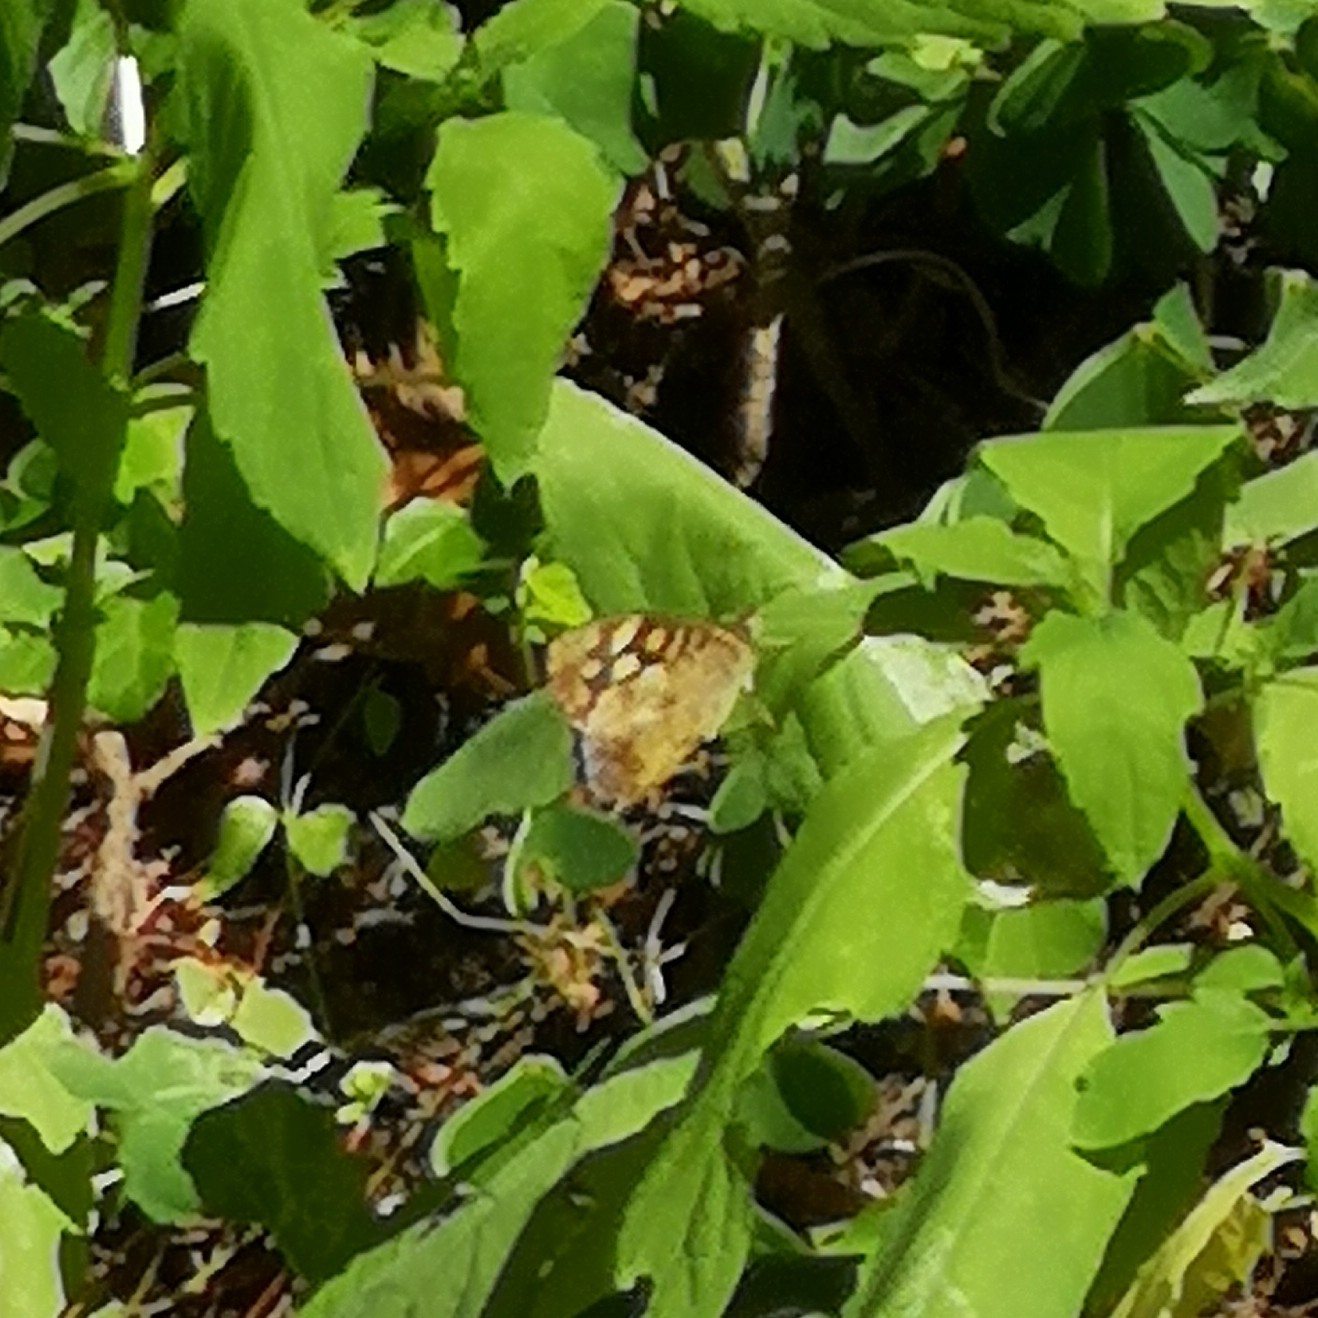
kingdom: Animalia
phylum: Arthropoda
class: Insecta
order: Lepidoptera
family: Nymphalidae
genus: Pararge
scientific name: Pararge aegeria
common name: Speckled wood
